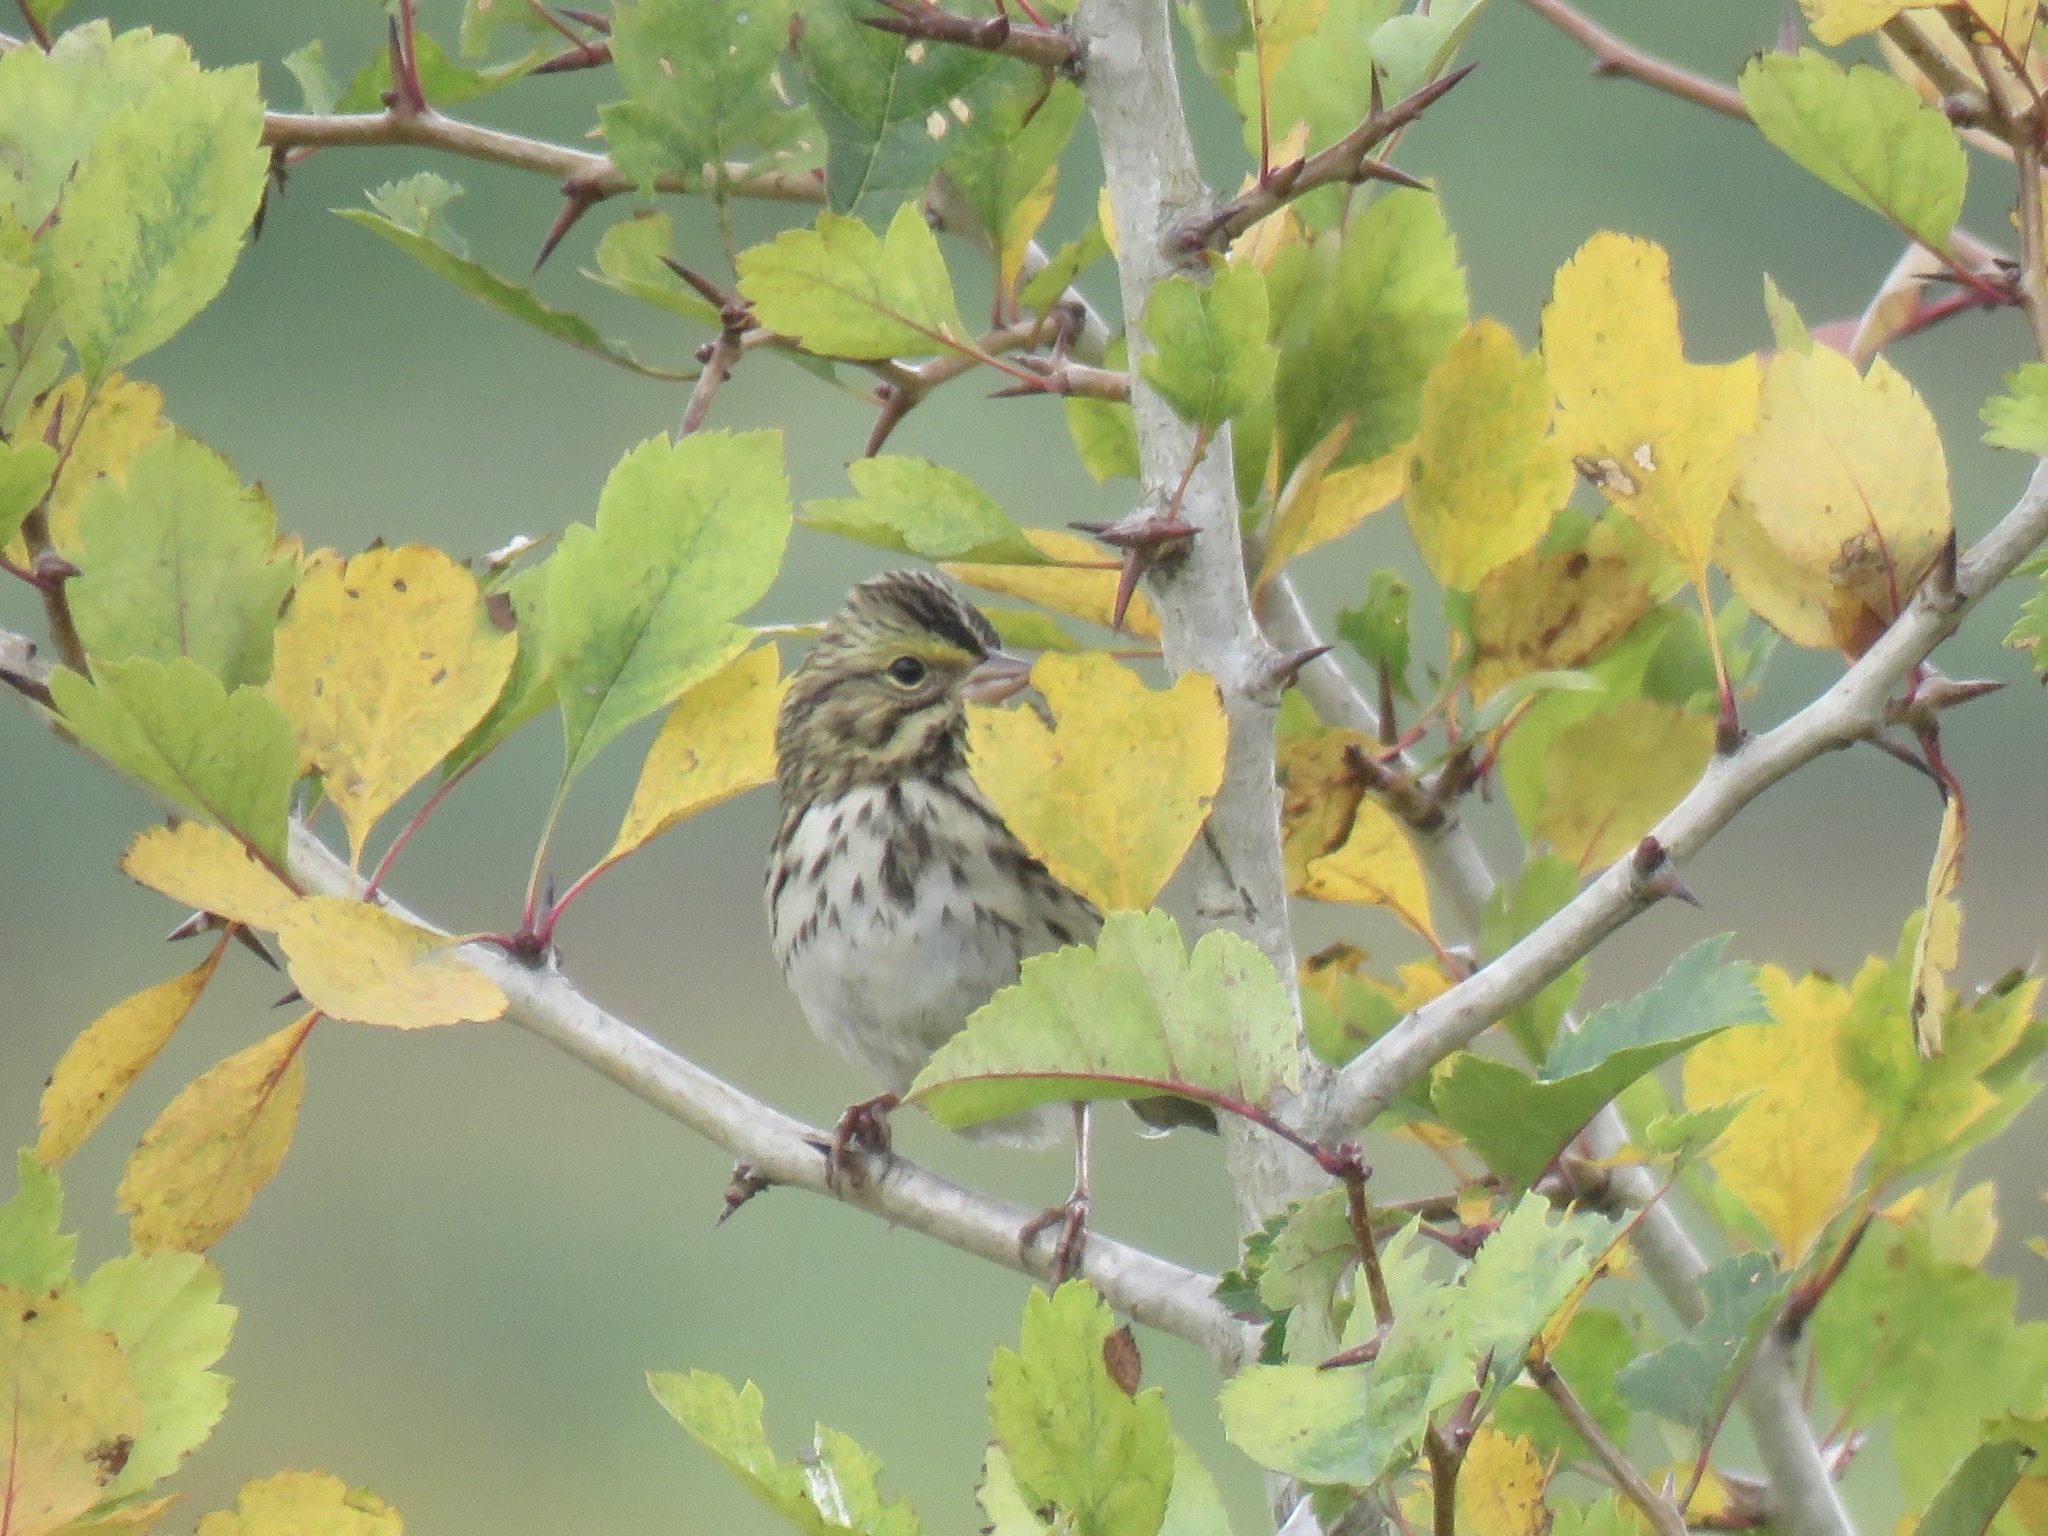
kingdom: Animalia
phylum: Chordata
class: Aves
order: Passeriformes
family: Passerellidae
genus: Passerculus
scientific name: Passerculus sandwichensis
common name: Savannah sparrow
